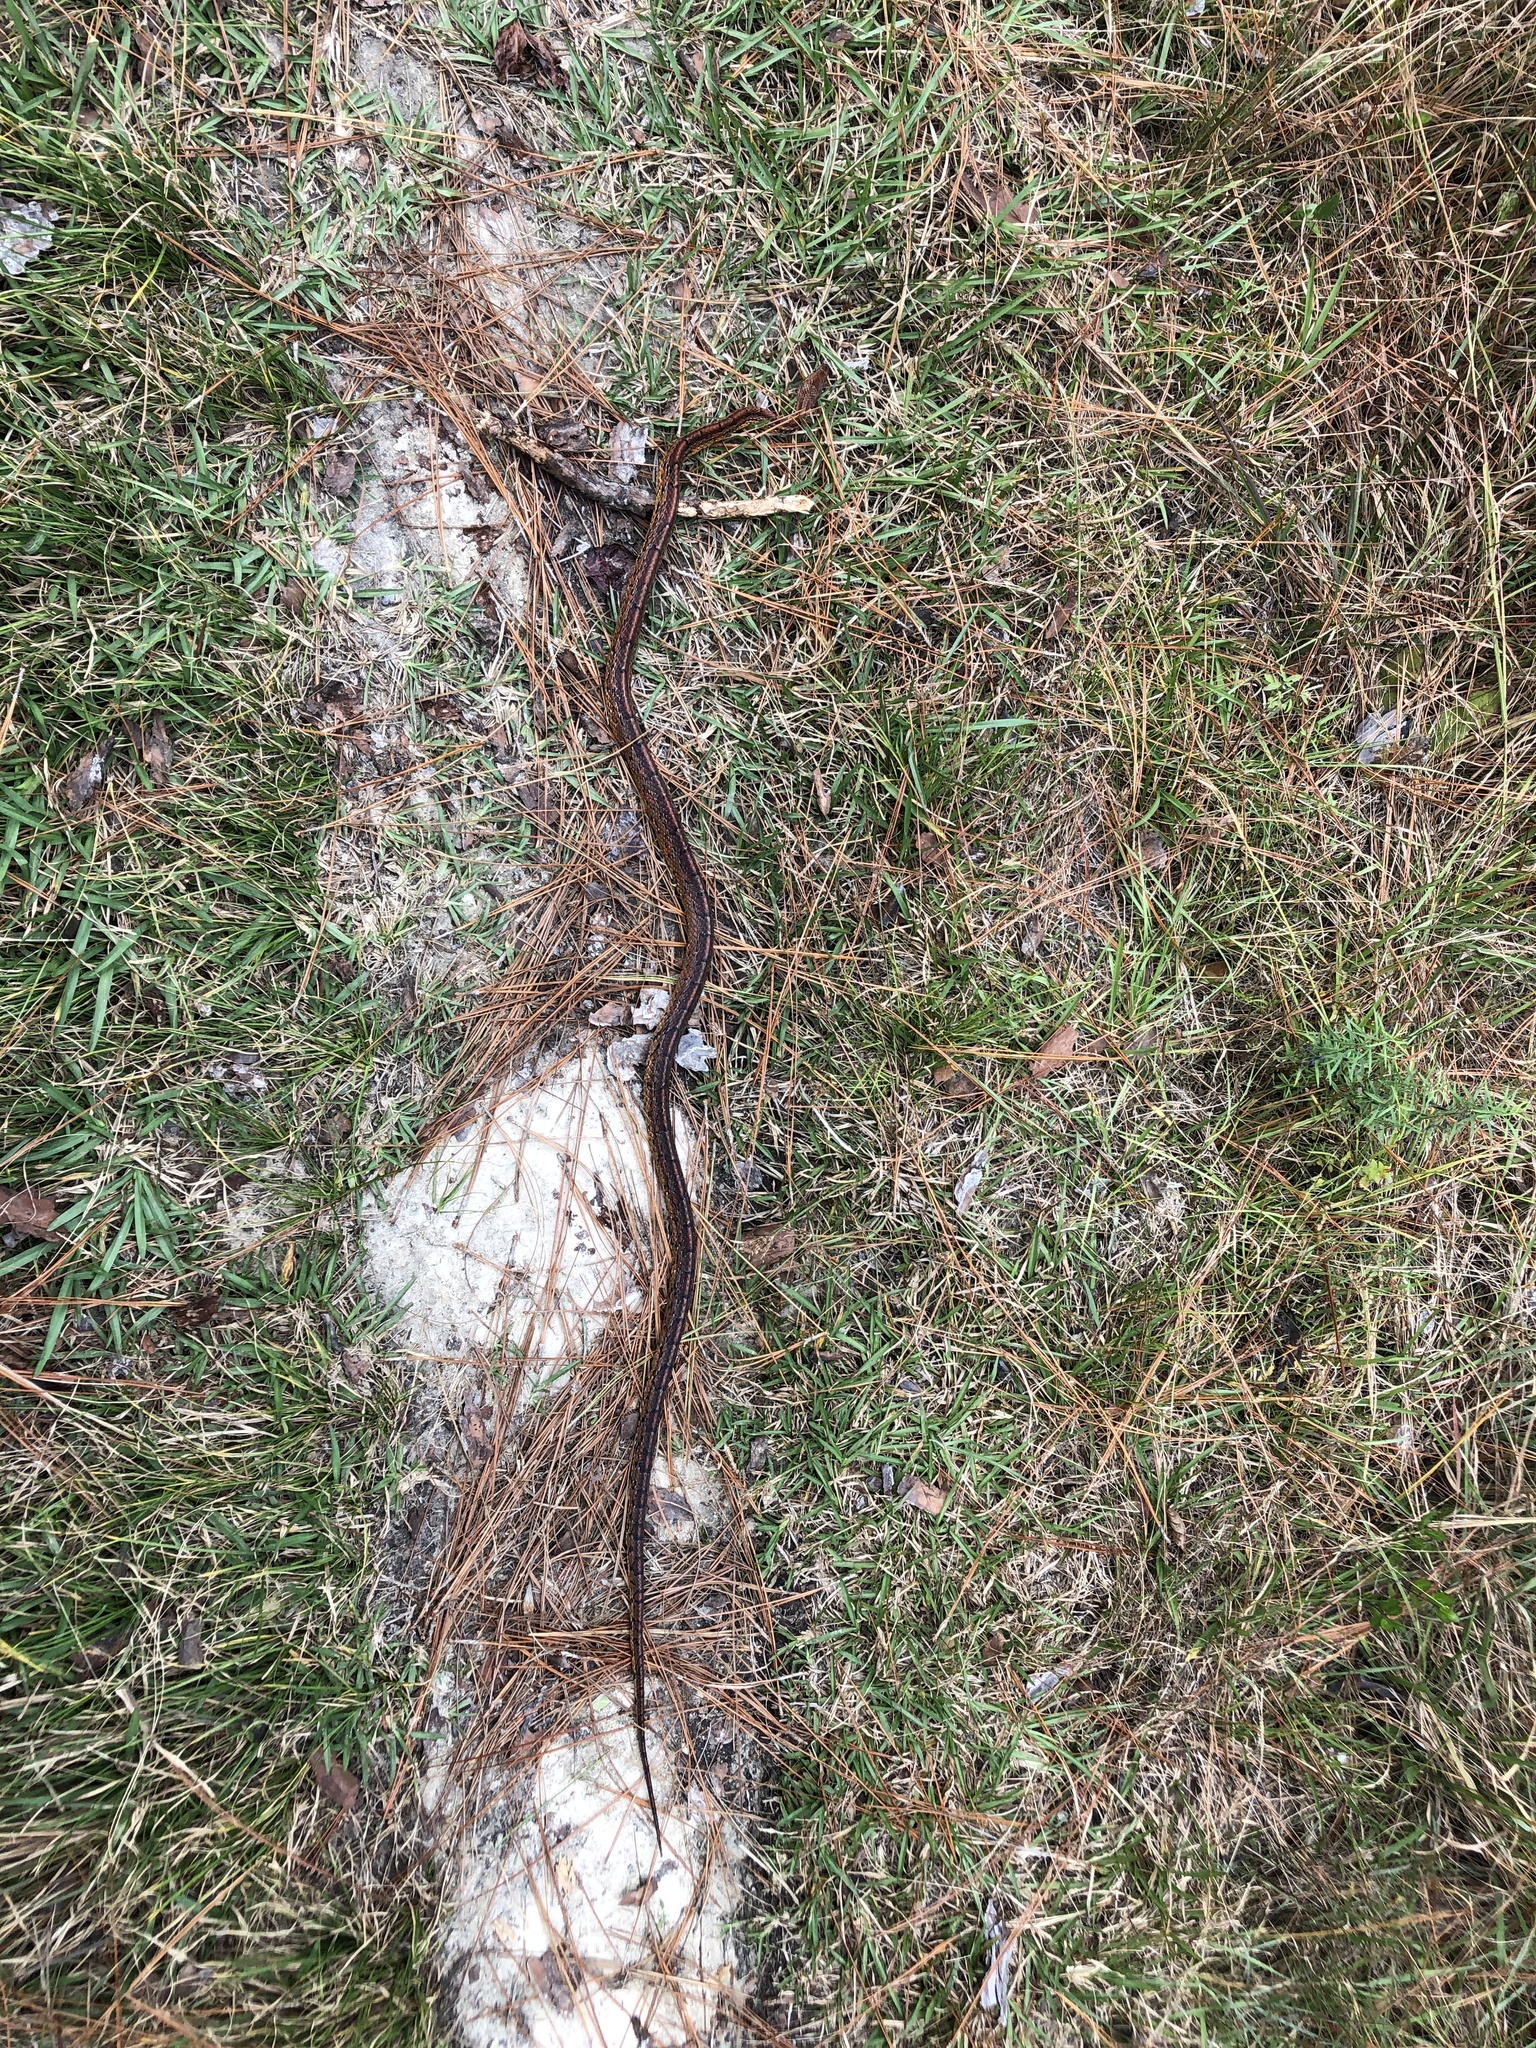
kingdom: Animalia
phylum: Chordata
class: Squamata
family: Colubridae
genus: Pantherophis
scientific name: Pantherophis guttatus
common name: Red cornsnake
